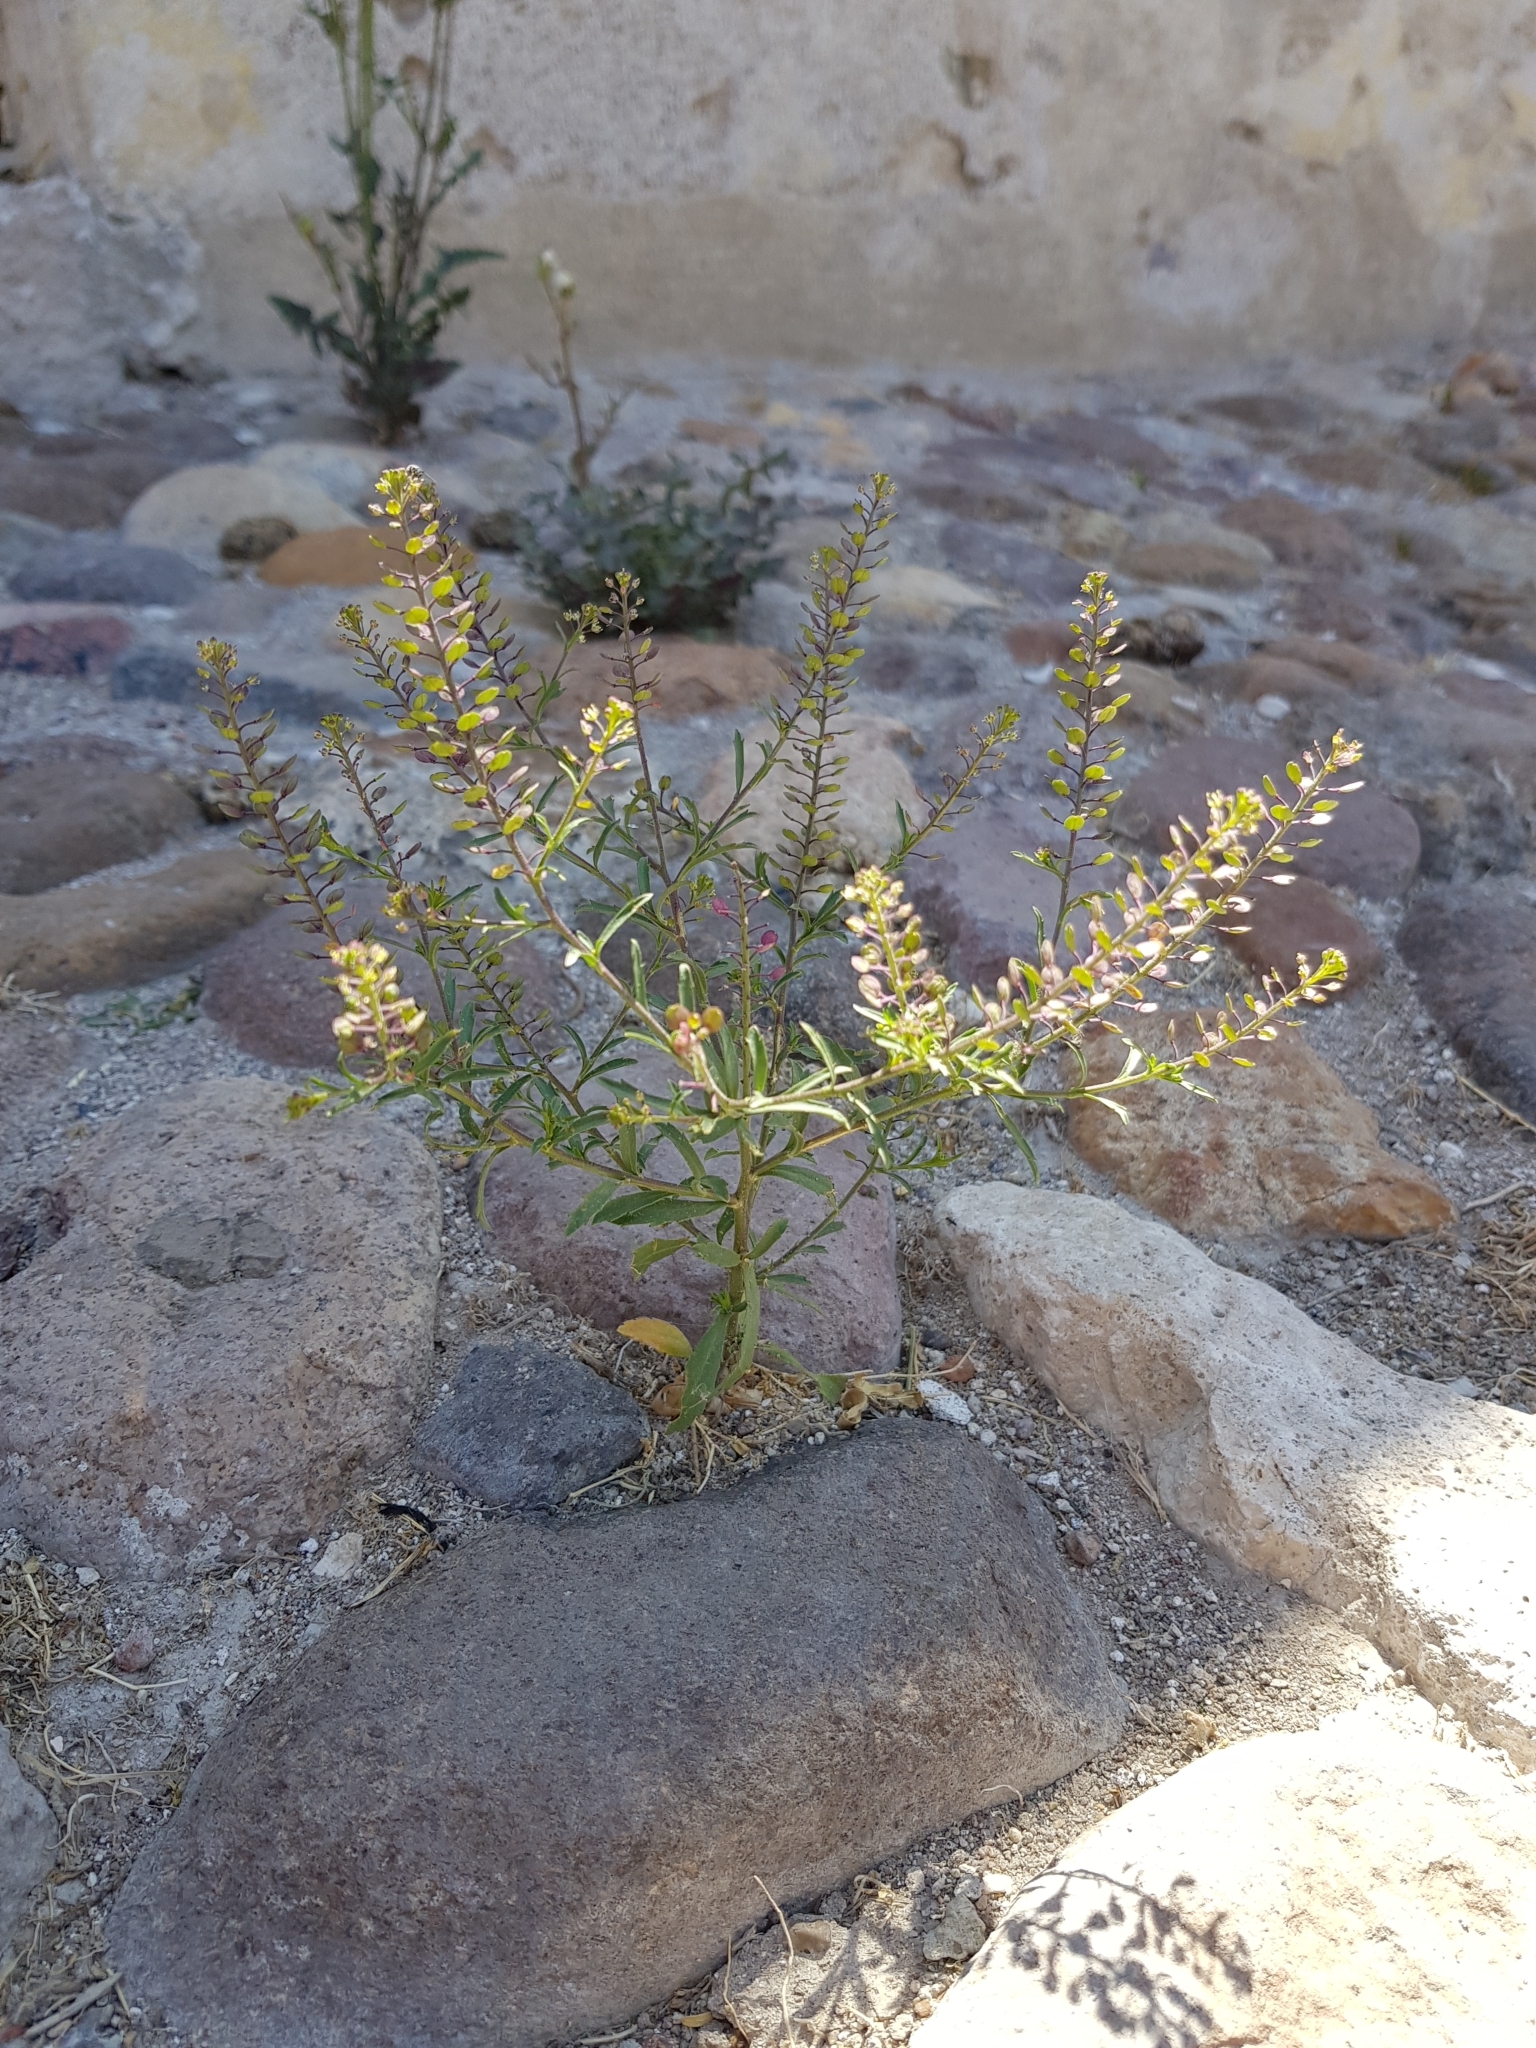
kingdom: Plantae
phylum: Tracheophyta
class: Magnoliopsida
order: Brassicales
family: Brassicaceae
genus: Lepidium
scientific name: Lepidium virginicum
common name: Least pepperwort
